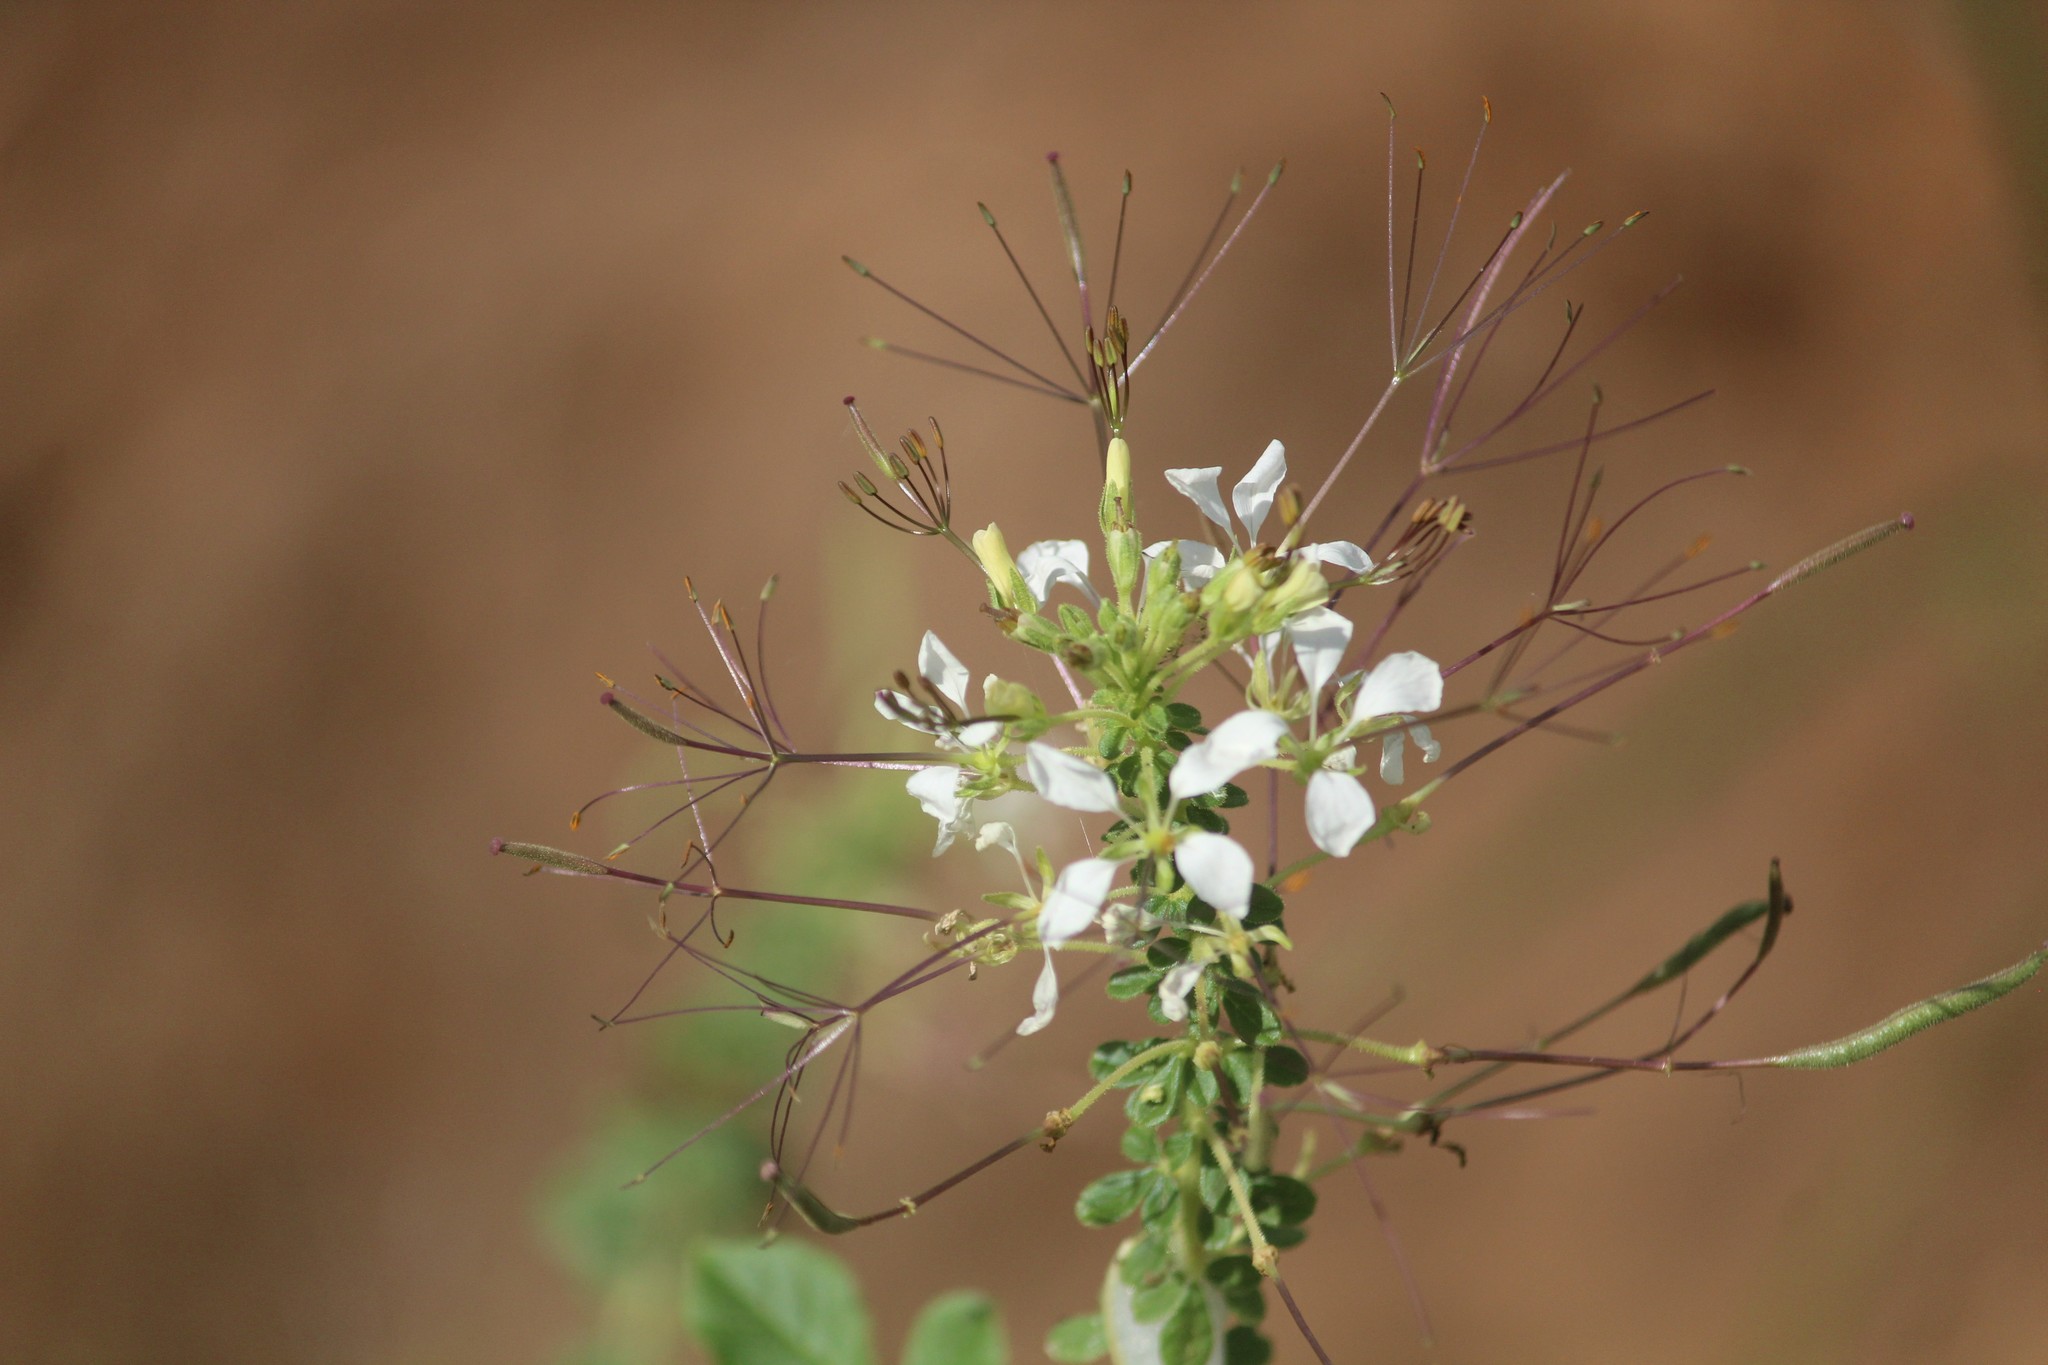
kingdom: Plantae
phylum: Tracheophyta
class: Magnoliopsida
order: Brassicales
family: Cleomaceae
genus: Gynandropsis
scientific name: Gynandropsis gynandra
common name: Spiderwisp
